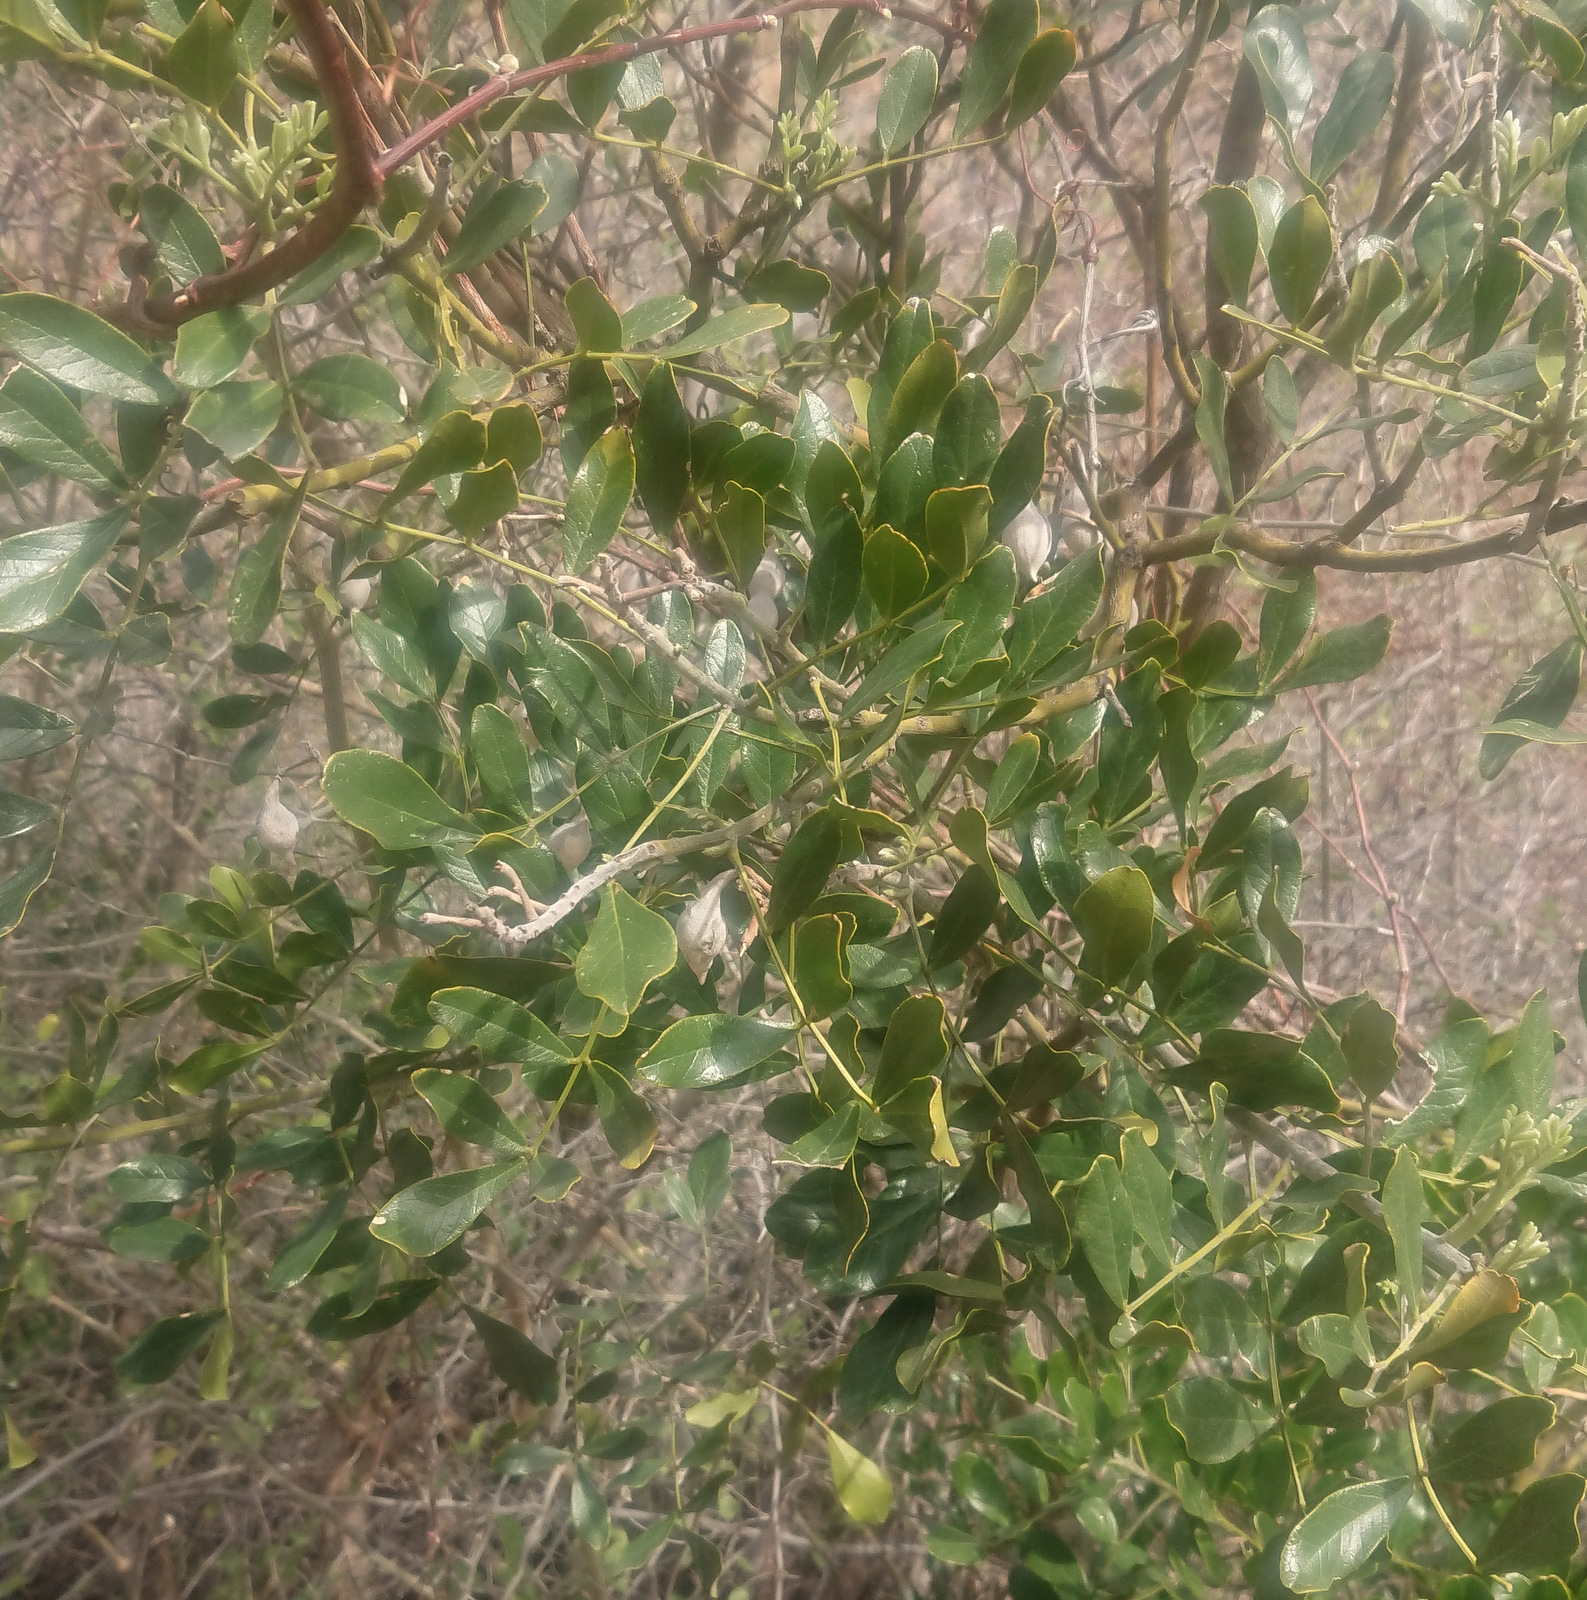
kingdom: Plantae
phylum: Tracheophyta
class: Magnoliopsida
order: Fabales
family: Fabaceae
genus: Dermatophyllum
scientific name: Dermatophyllum secundiflorum
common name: Texas-mountain-laurel
